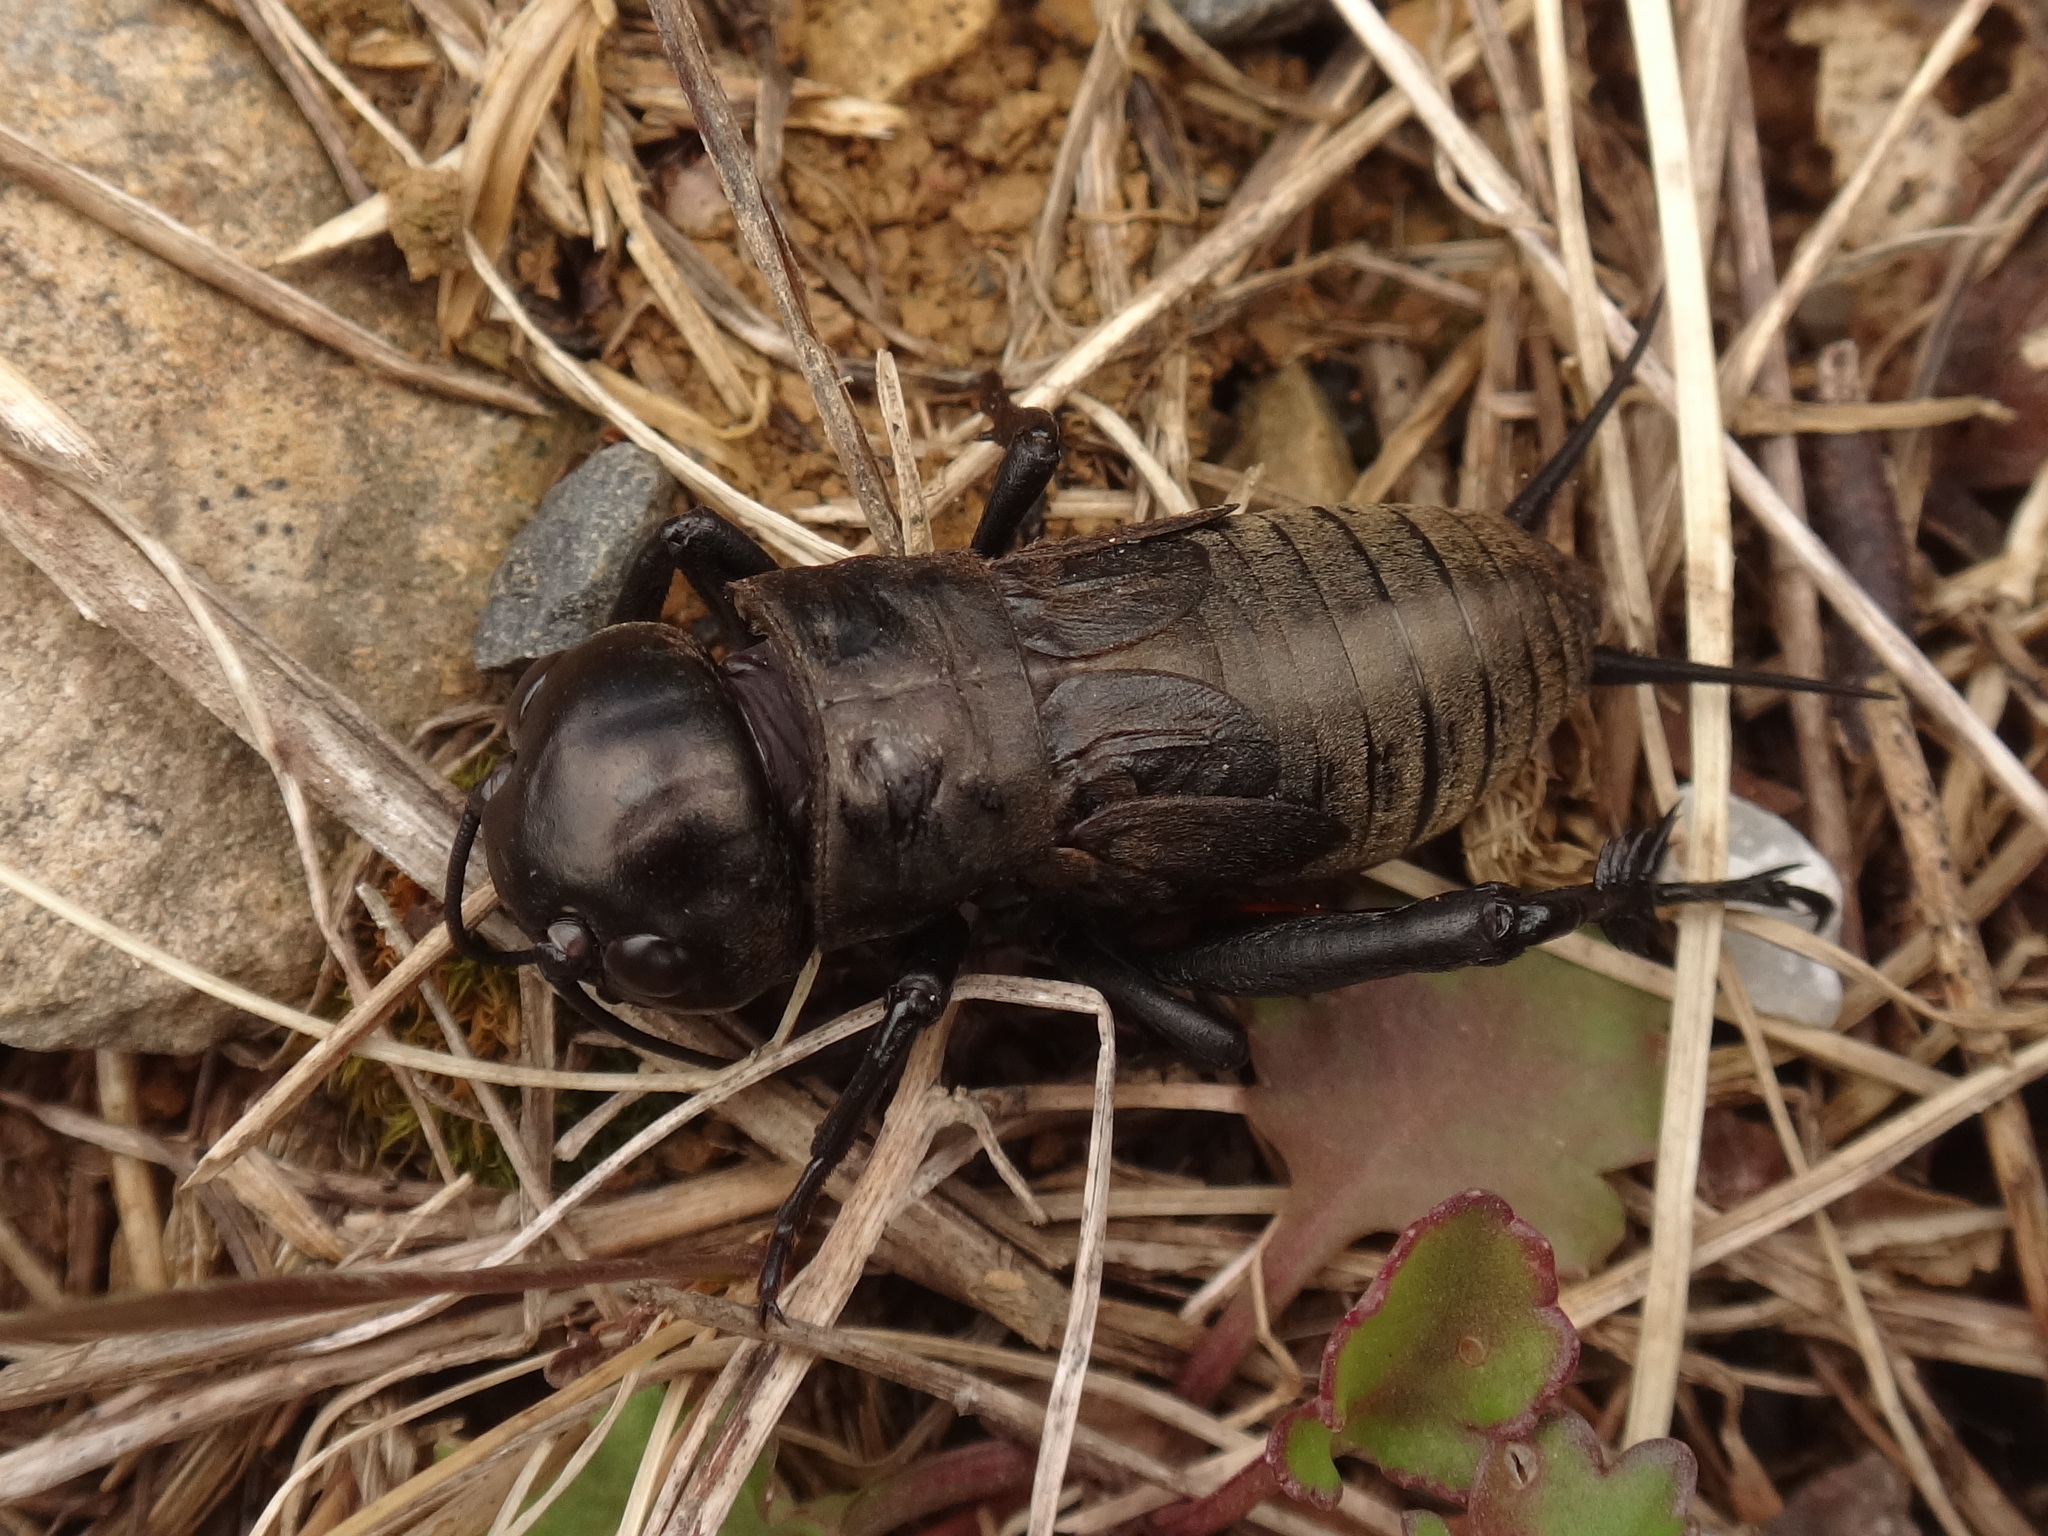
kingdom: Animalia
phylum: Arthropoda
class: Insecta
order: Orthoptera
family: Gryllidae
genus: Gryllus
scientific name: Gryllus campestris
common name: Field cricket
